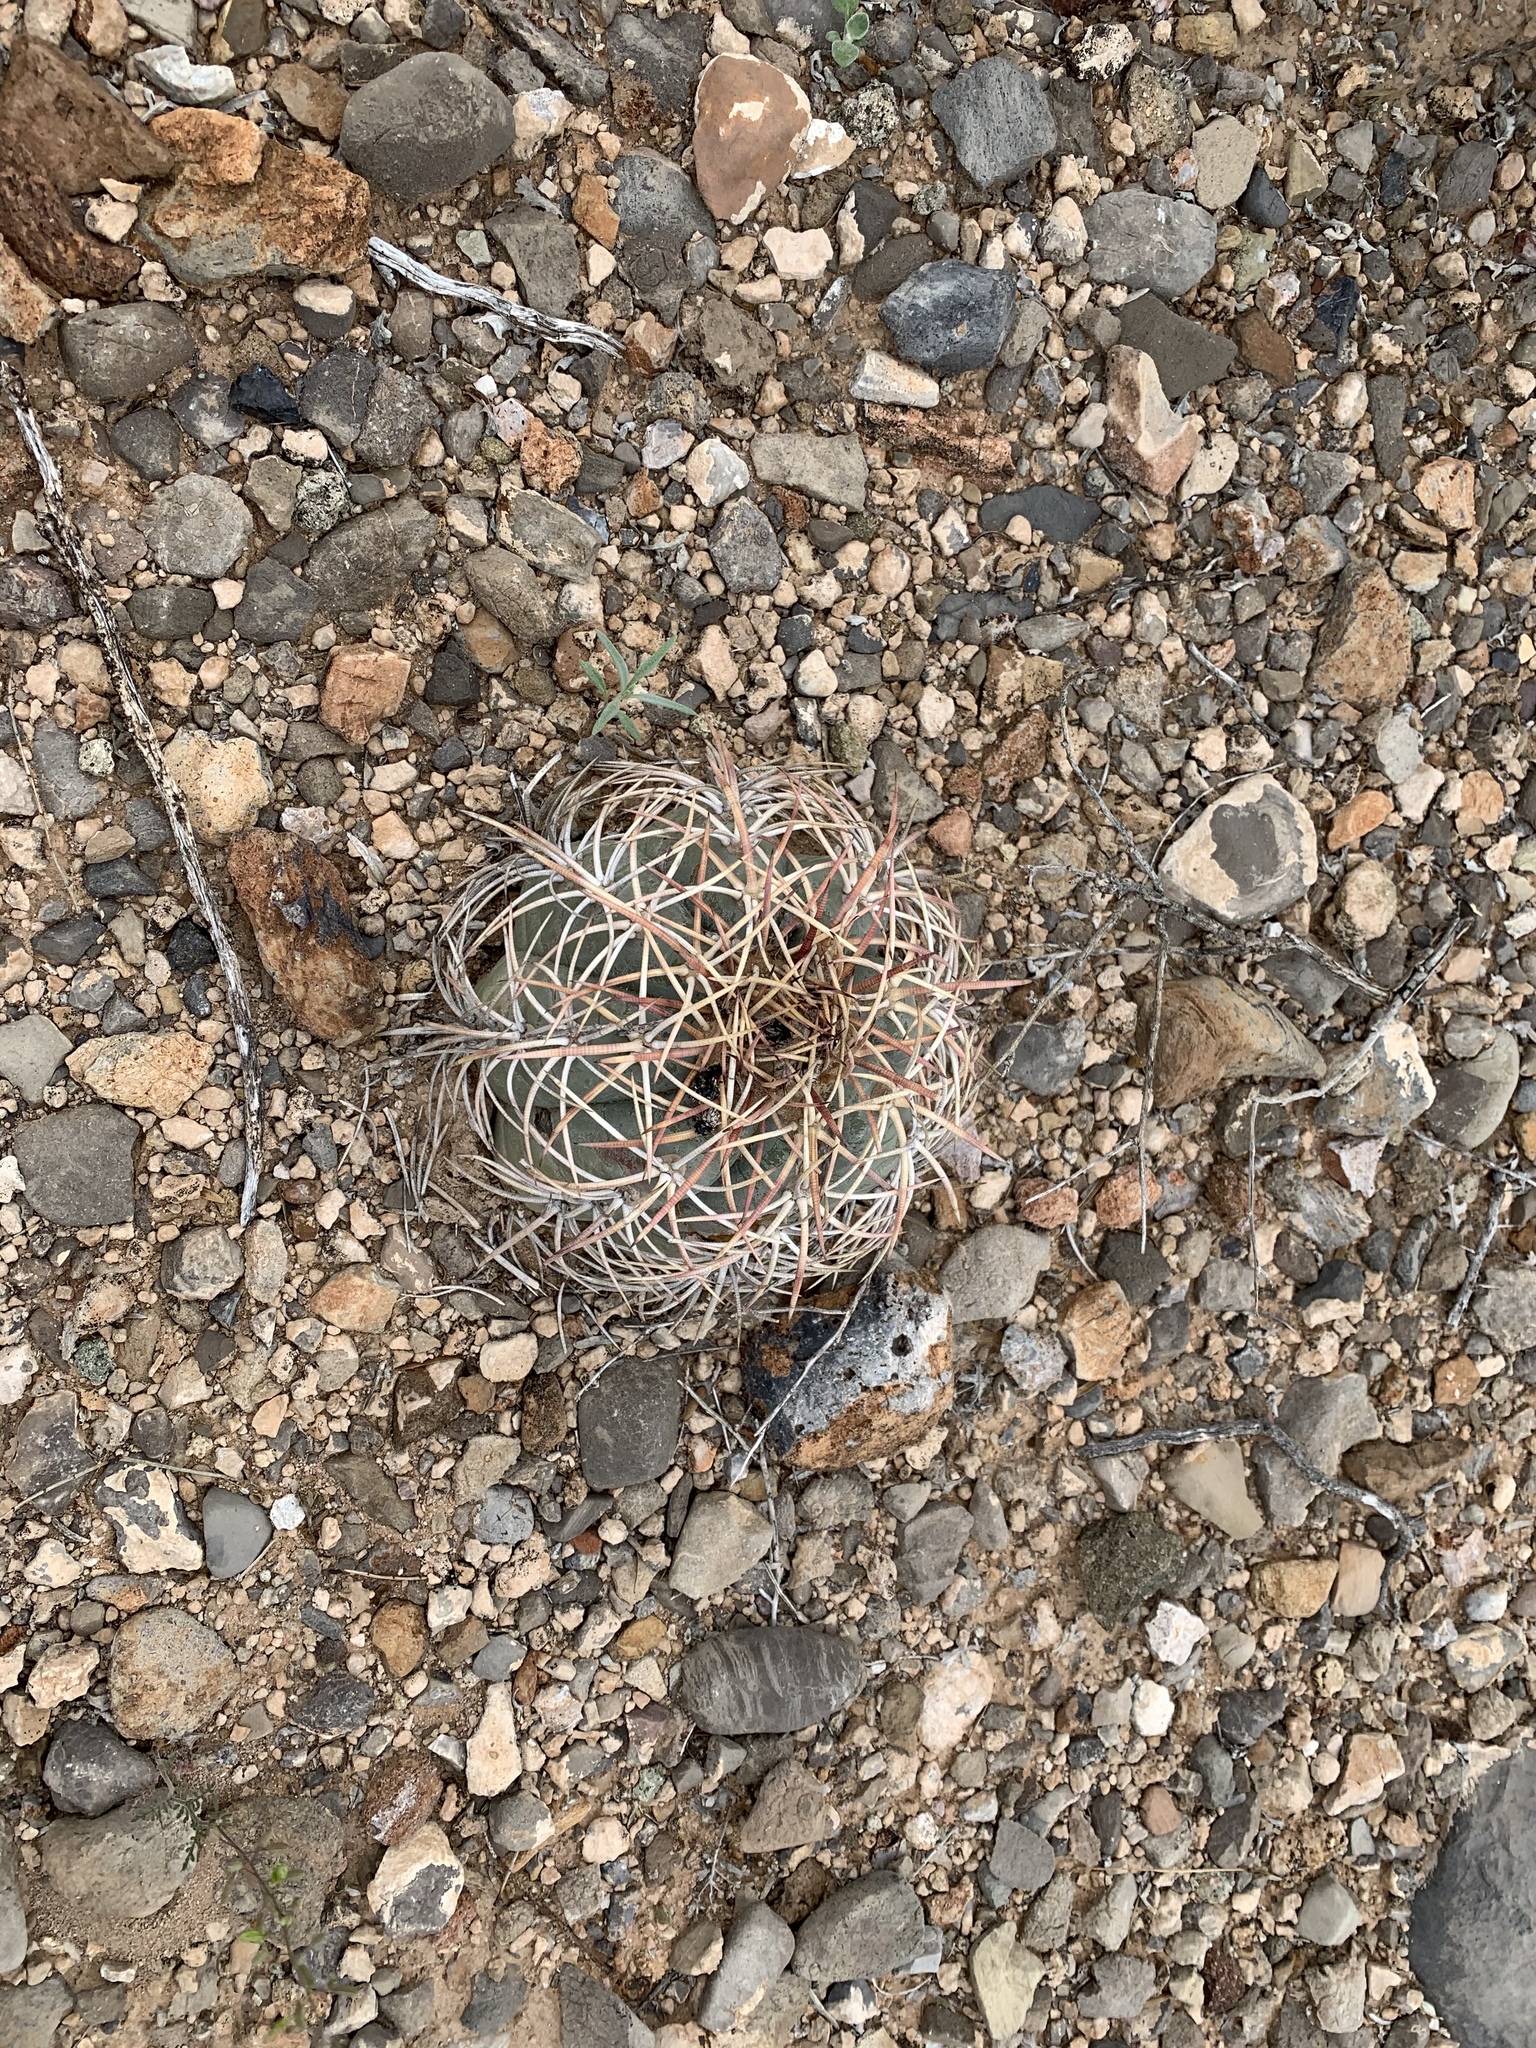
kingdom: Plantae
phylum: Tracheophyta
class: Magnoliopsida
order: Caryophyllales
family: Cactaceae
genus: Echinocactus
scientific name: Echinocactus horizonthalonius
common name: Devilshead
